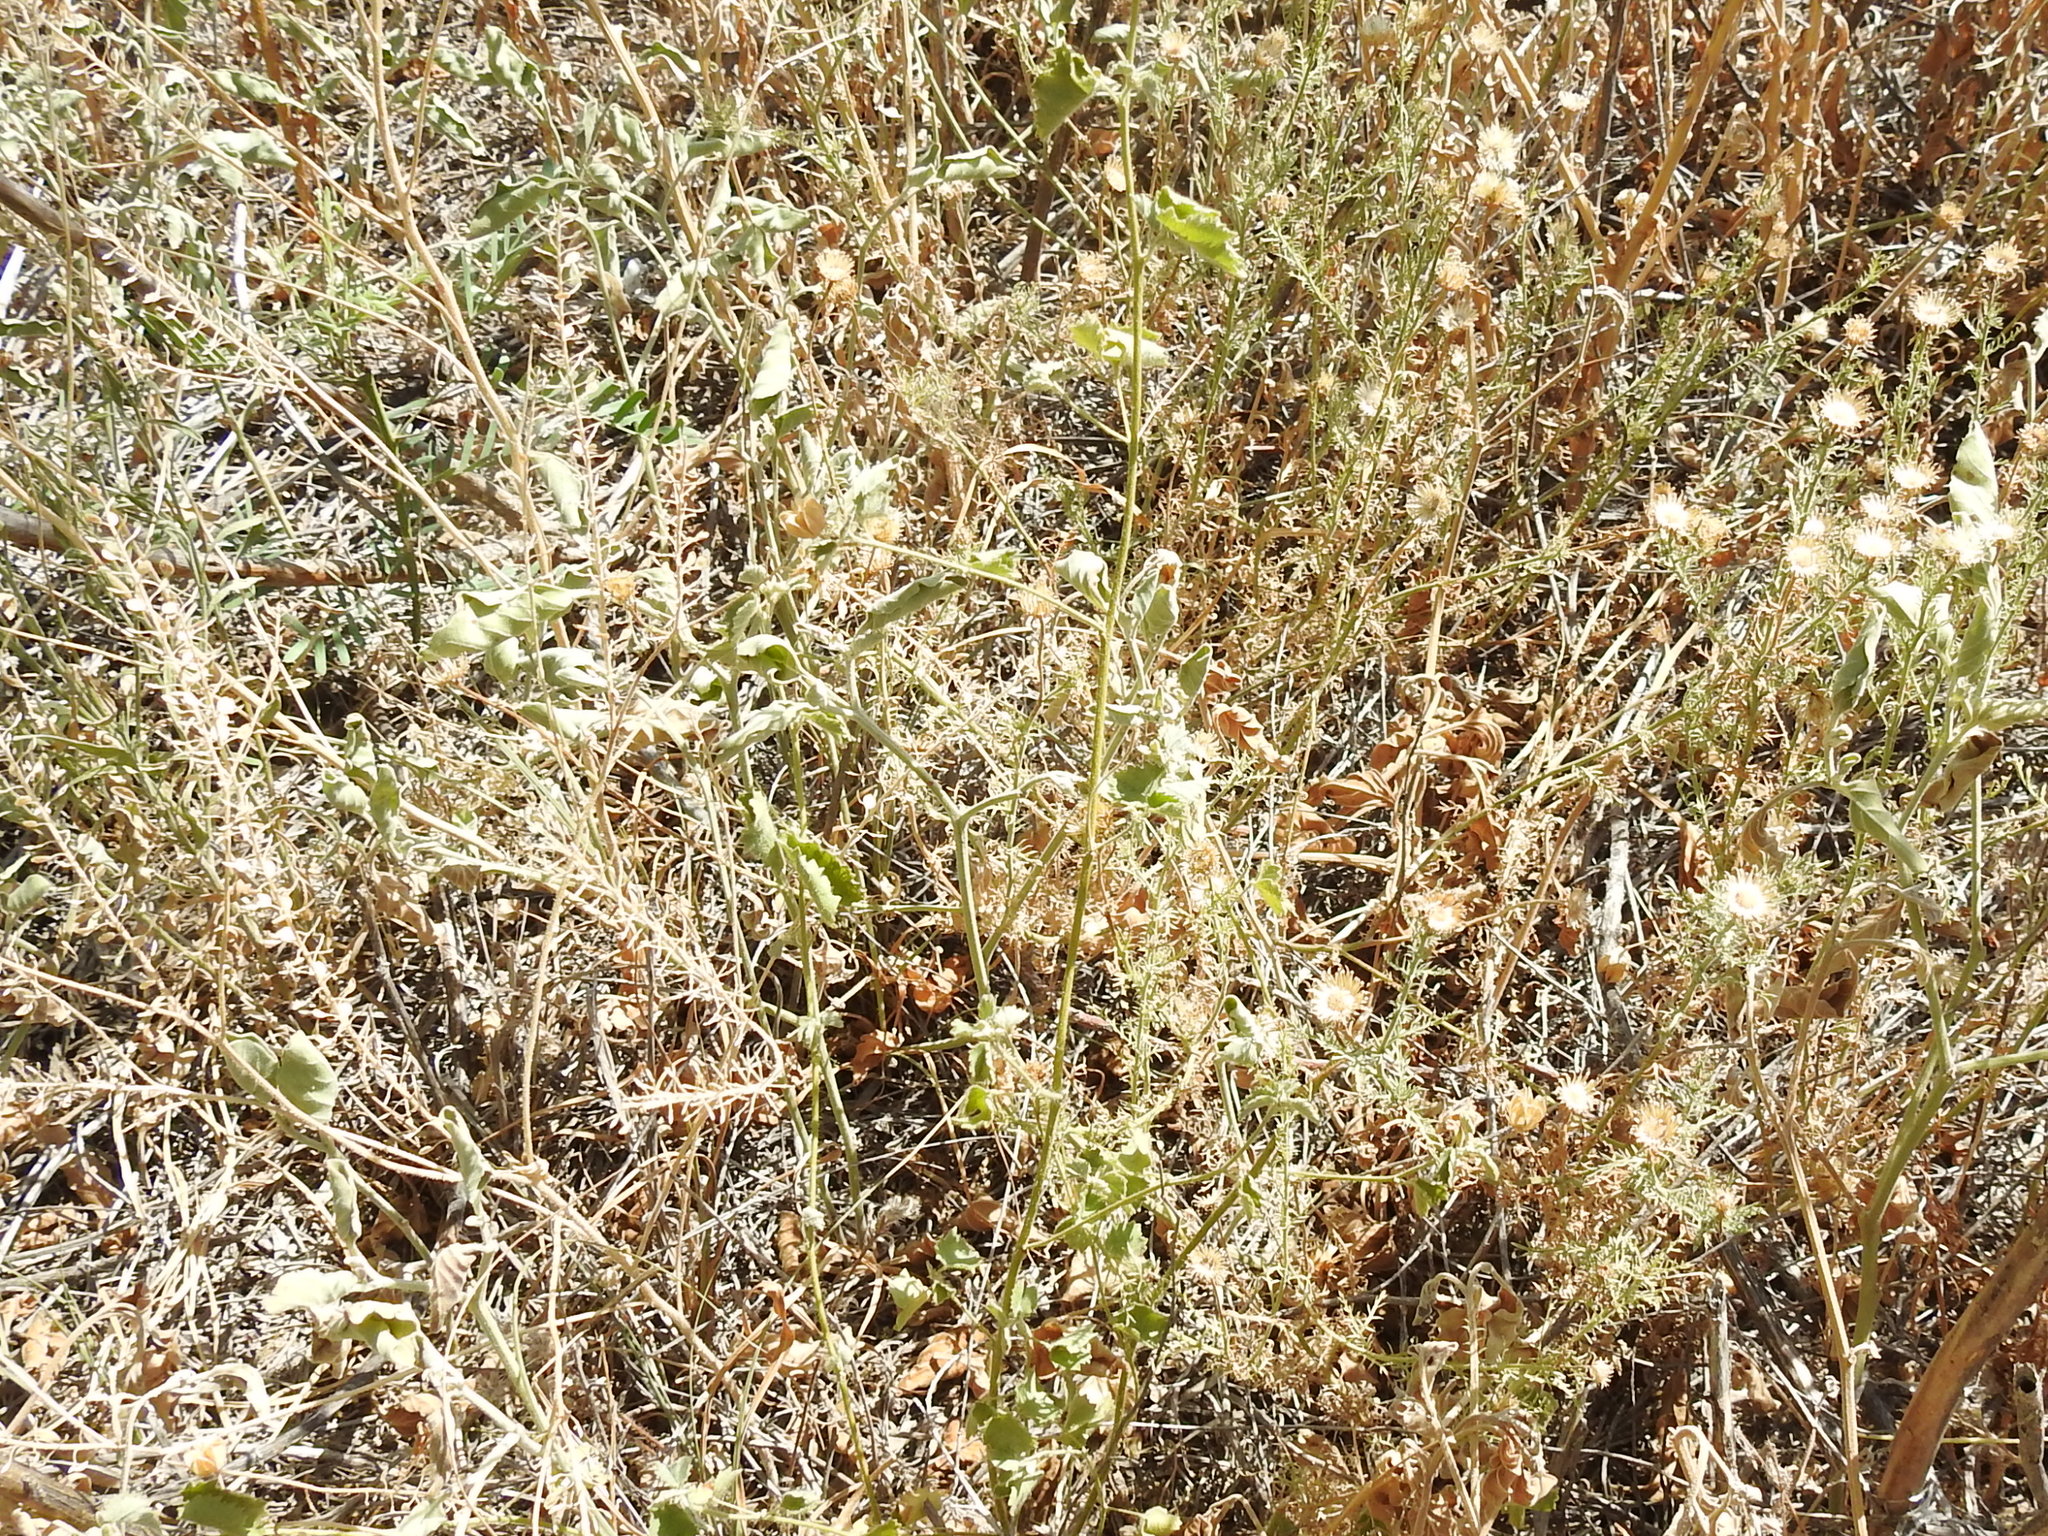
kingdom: Plantae
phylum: Tracheophyta
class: Magnoliopsida
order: Malvales
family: Malvaceae
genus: Abutilon
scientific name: Abutilon parvulum
